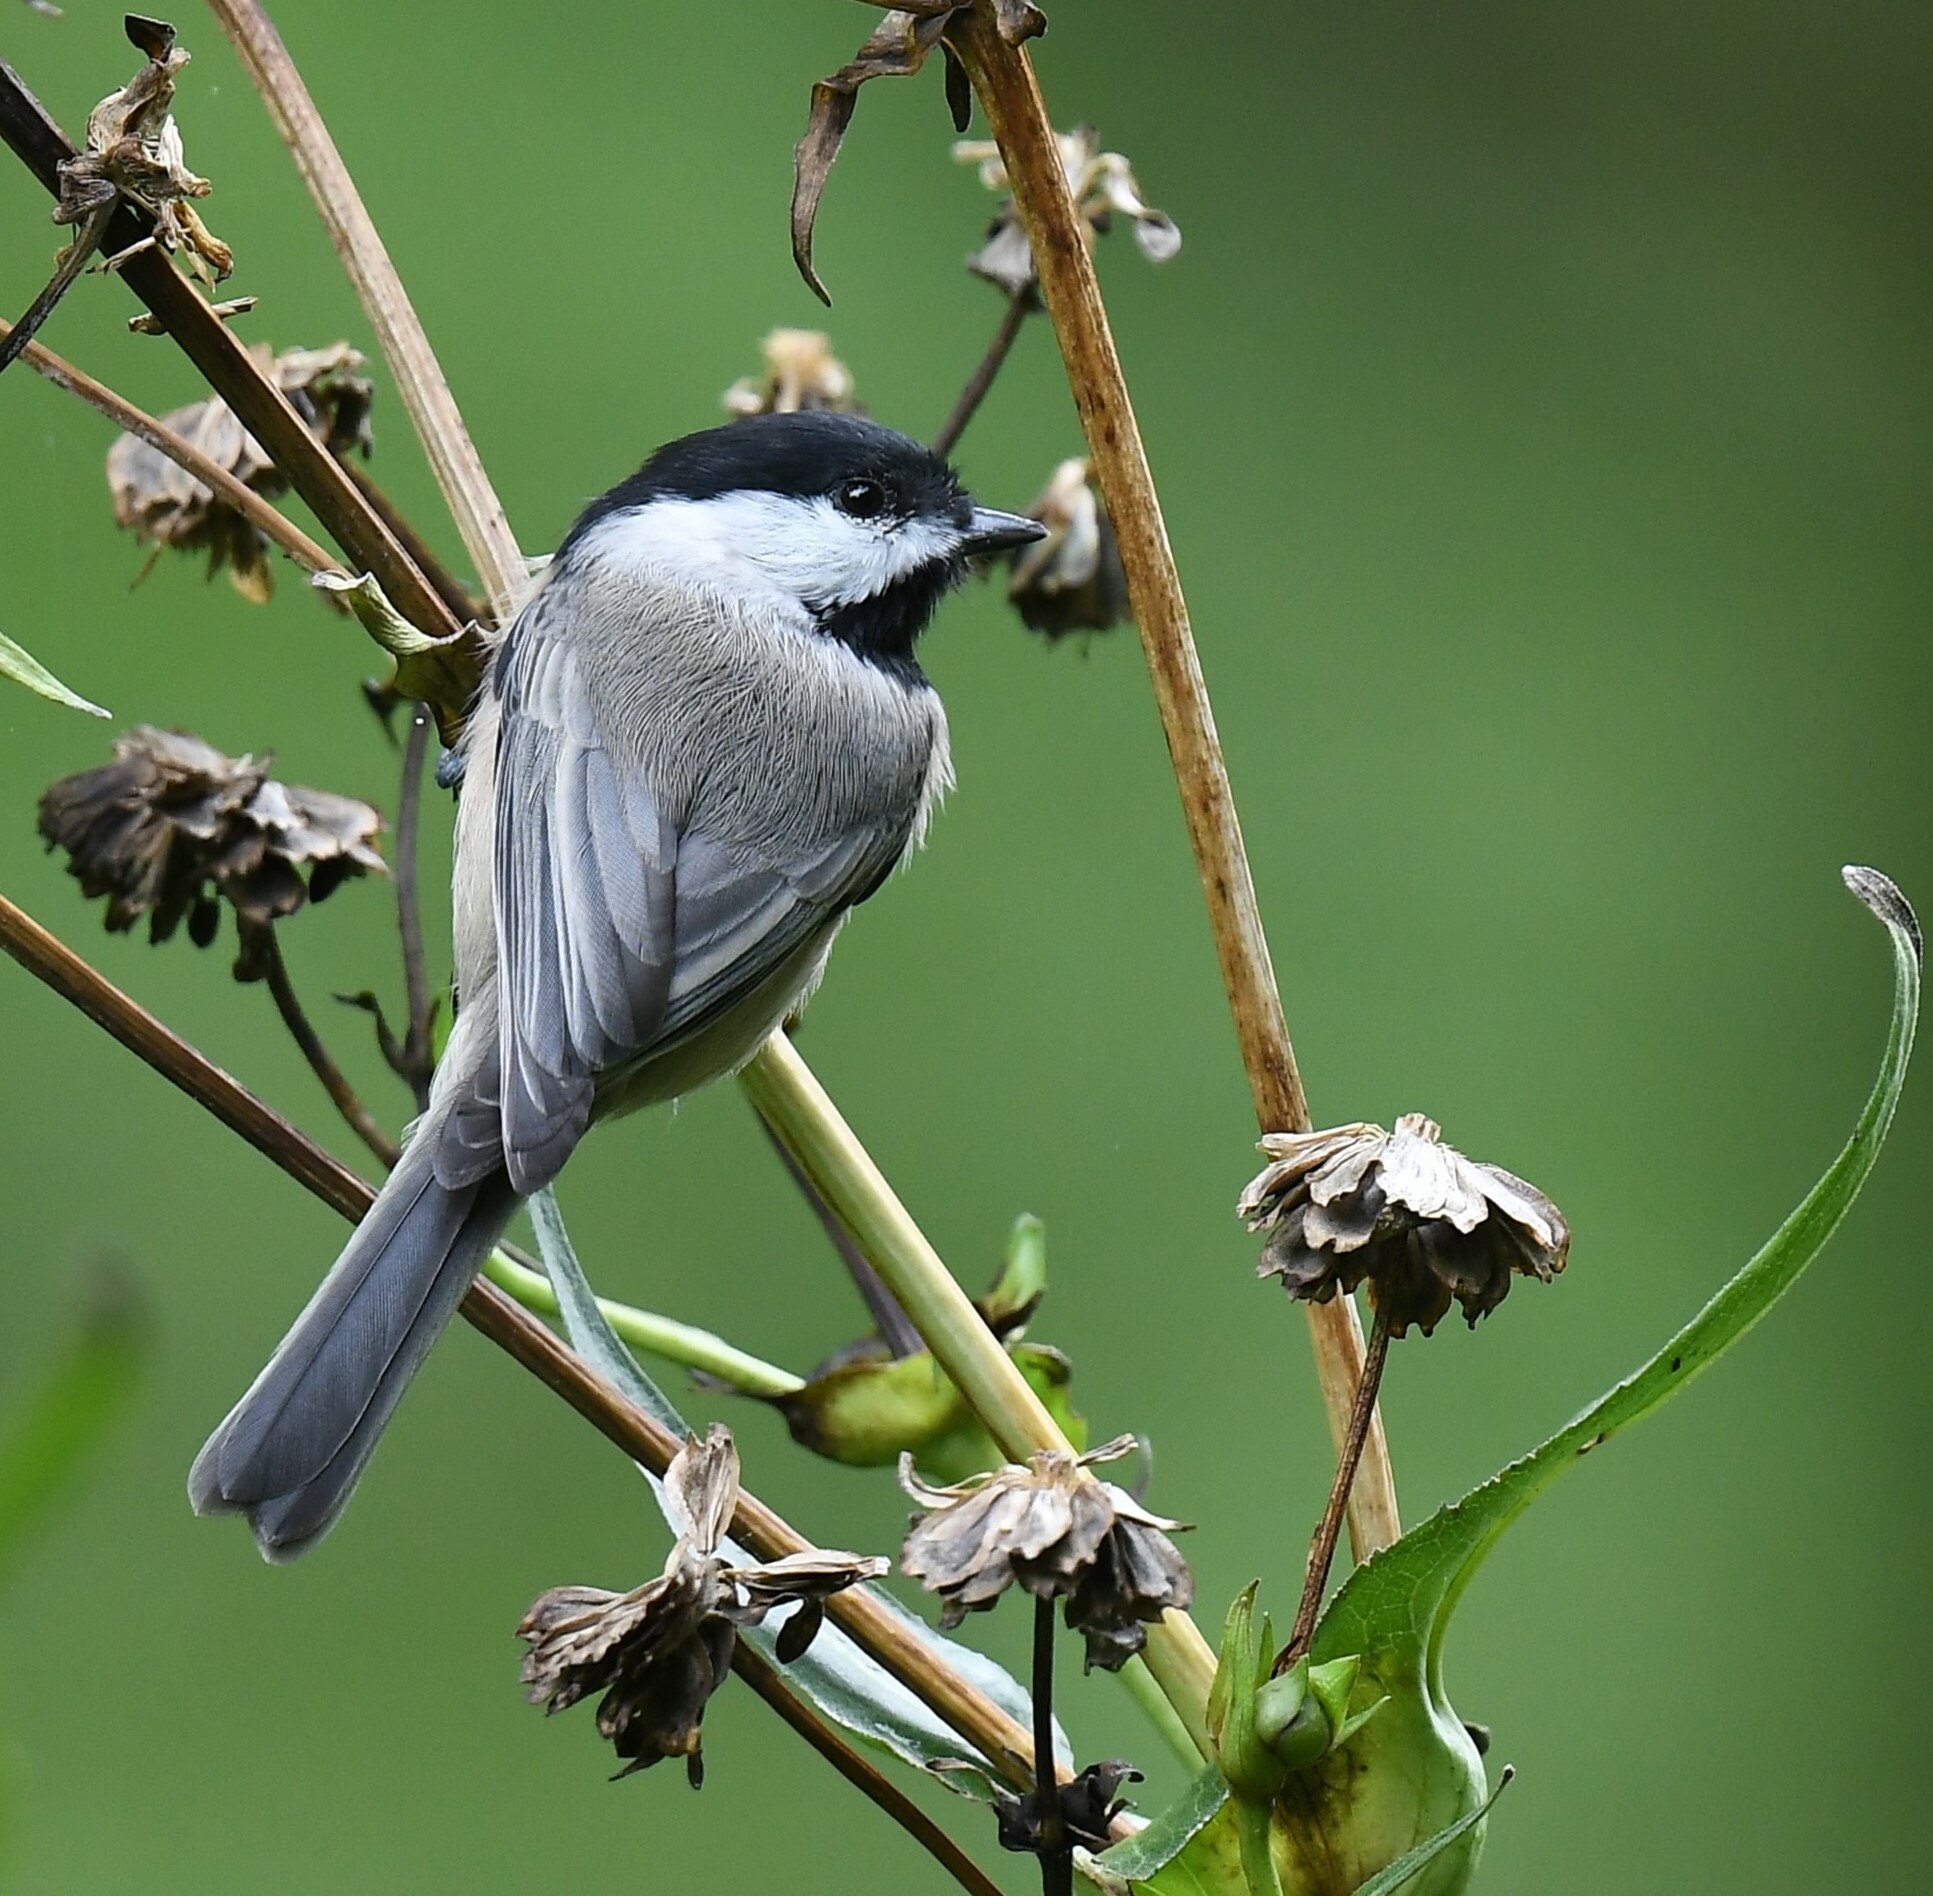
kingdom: Animalia
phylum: Chordata
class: Aves
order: Passeriformes
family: Paridae
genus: Poecile
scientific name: Poecile carolinensis
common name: Carolina chickadee
